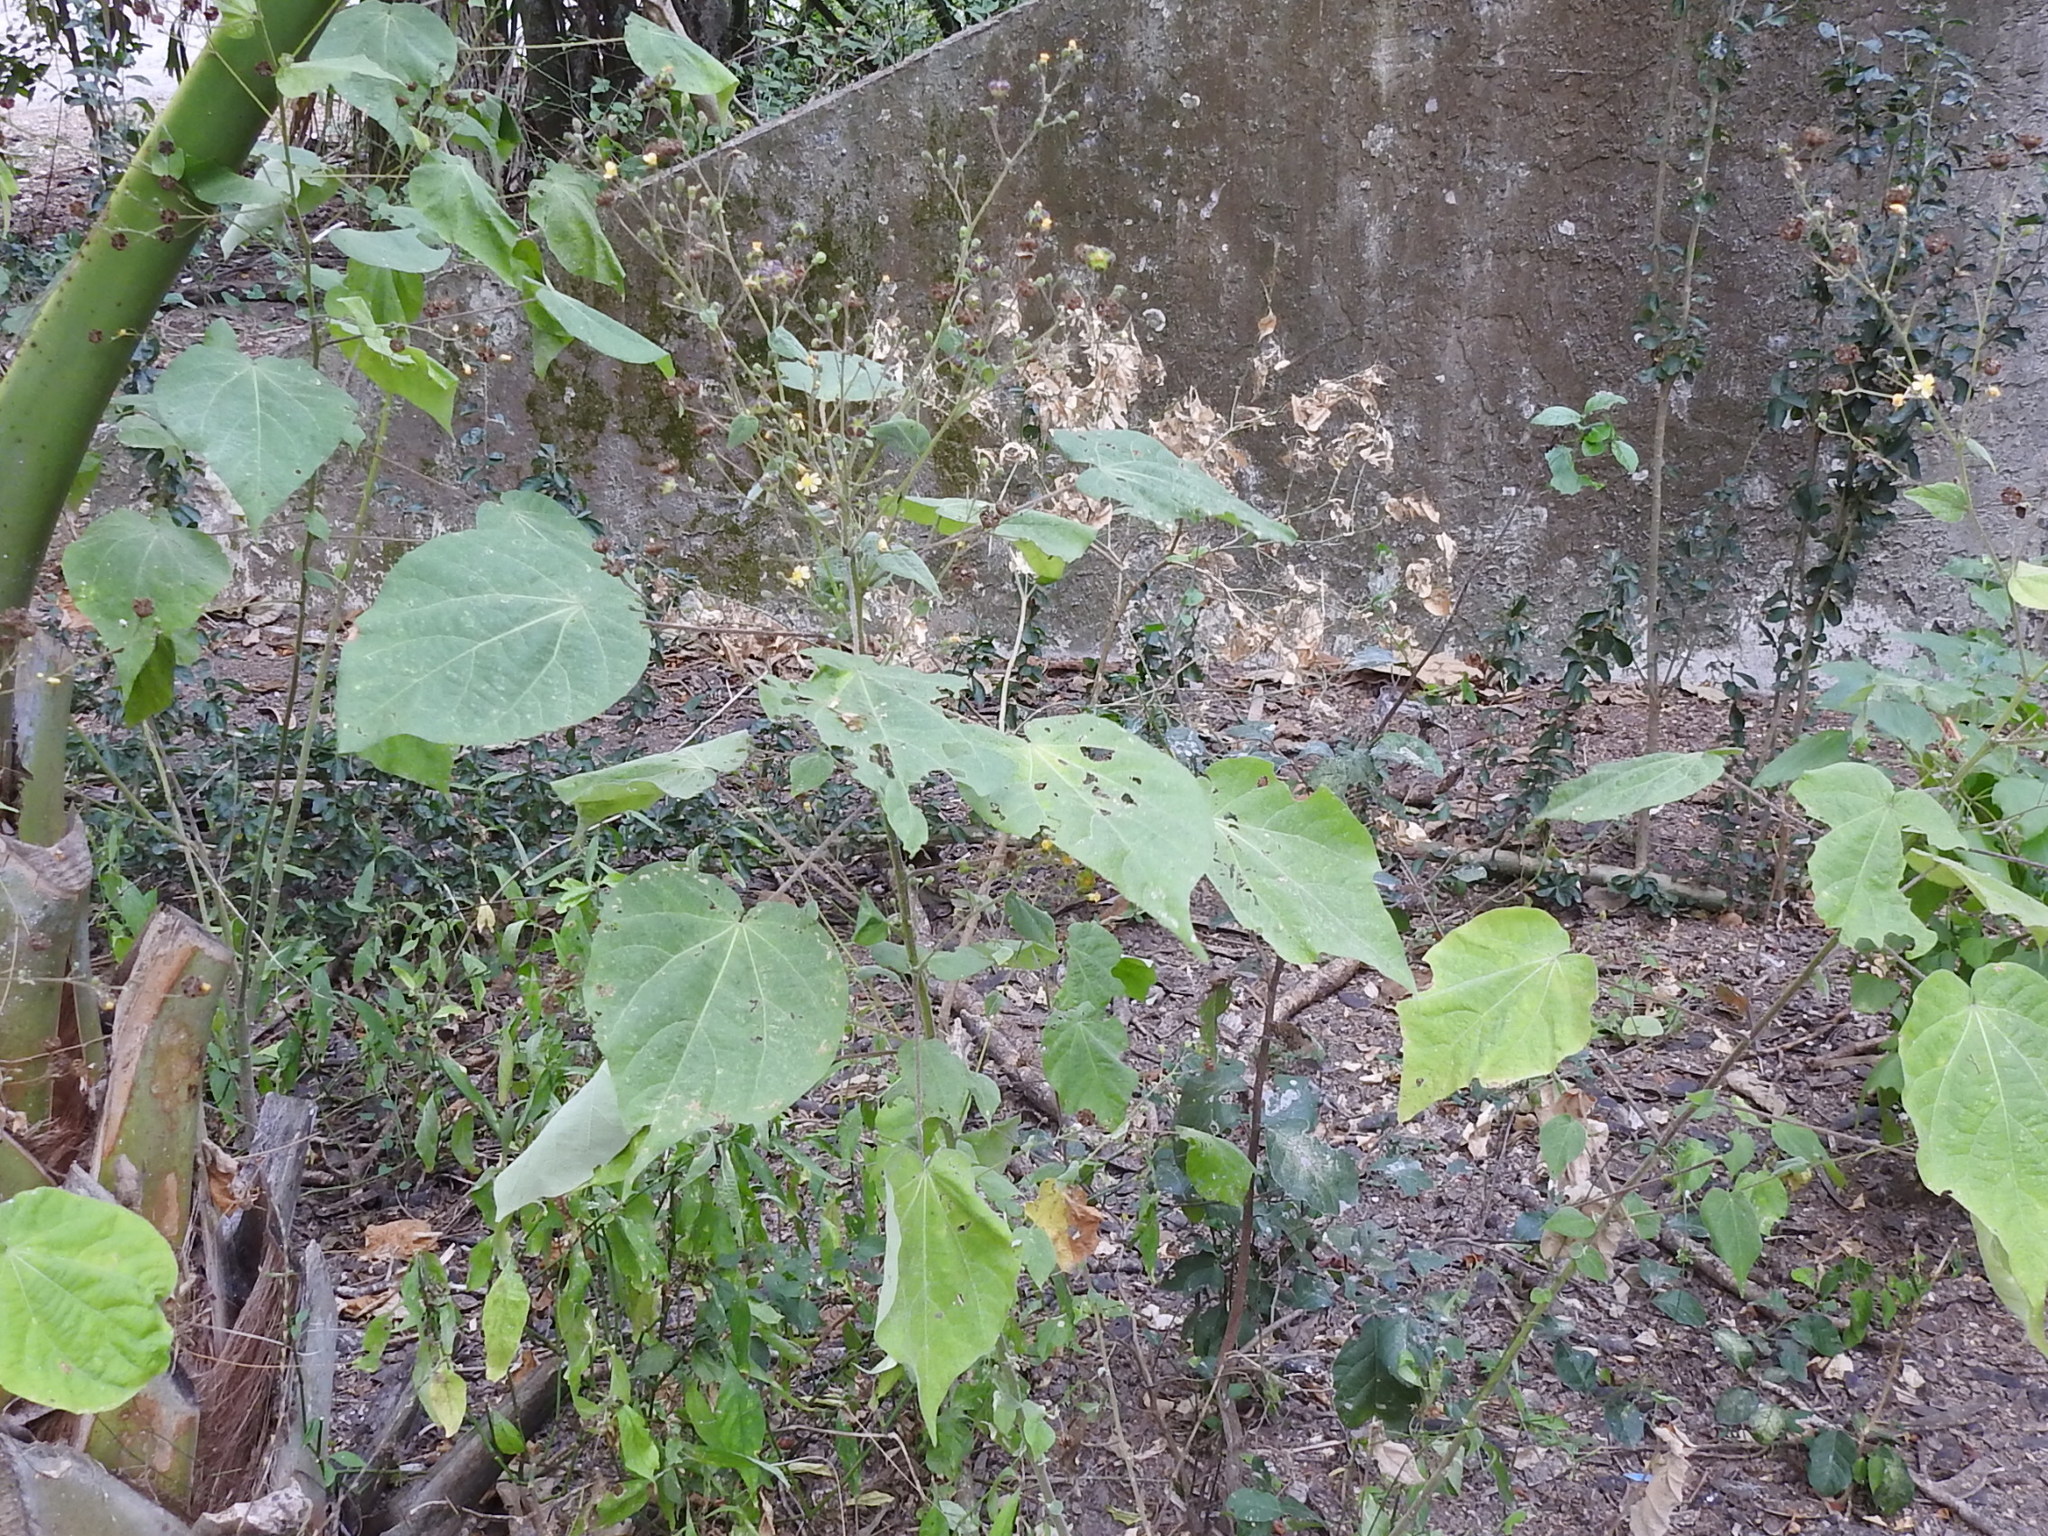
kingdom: Plantae
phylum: Tracheophyta
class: Magnoliopsida
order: Malvales
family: Malvaceae
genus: Wissadula
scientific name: Wissadula amplissima
